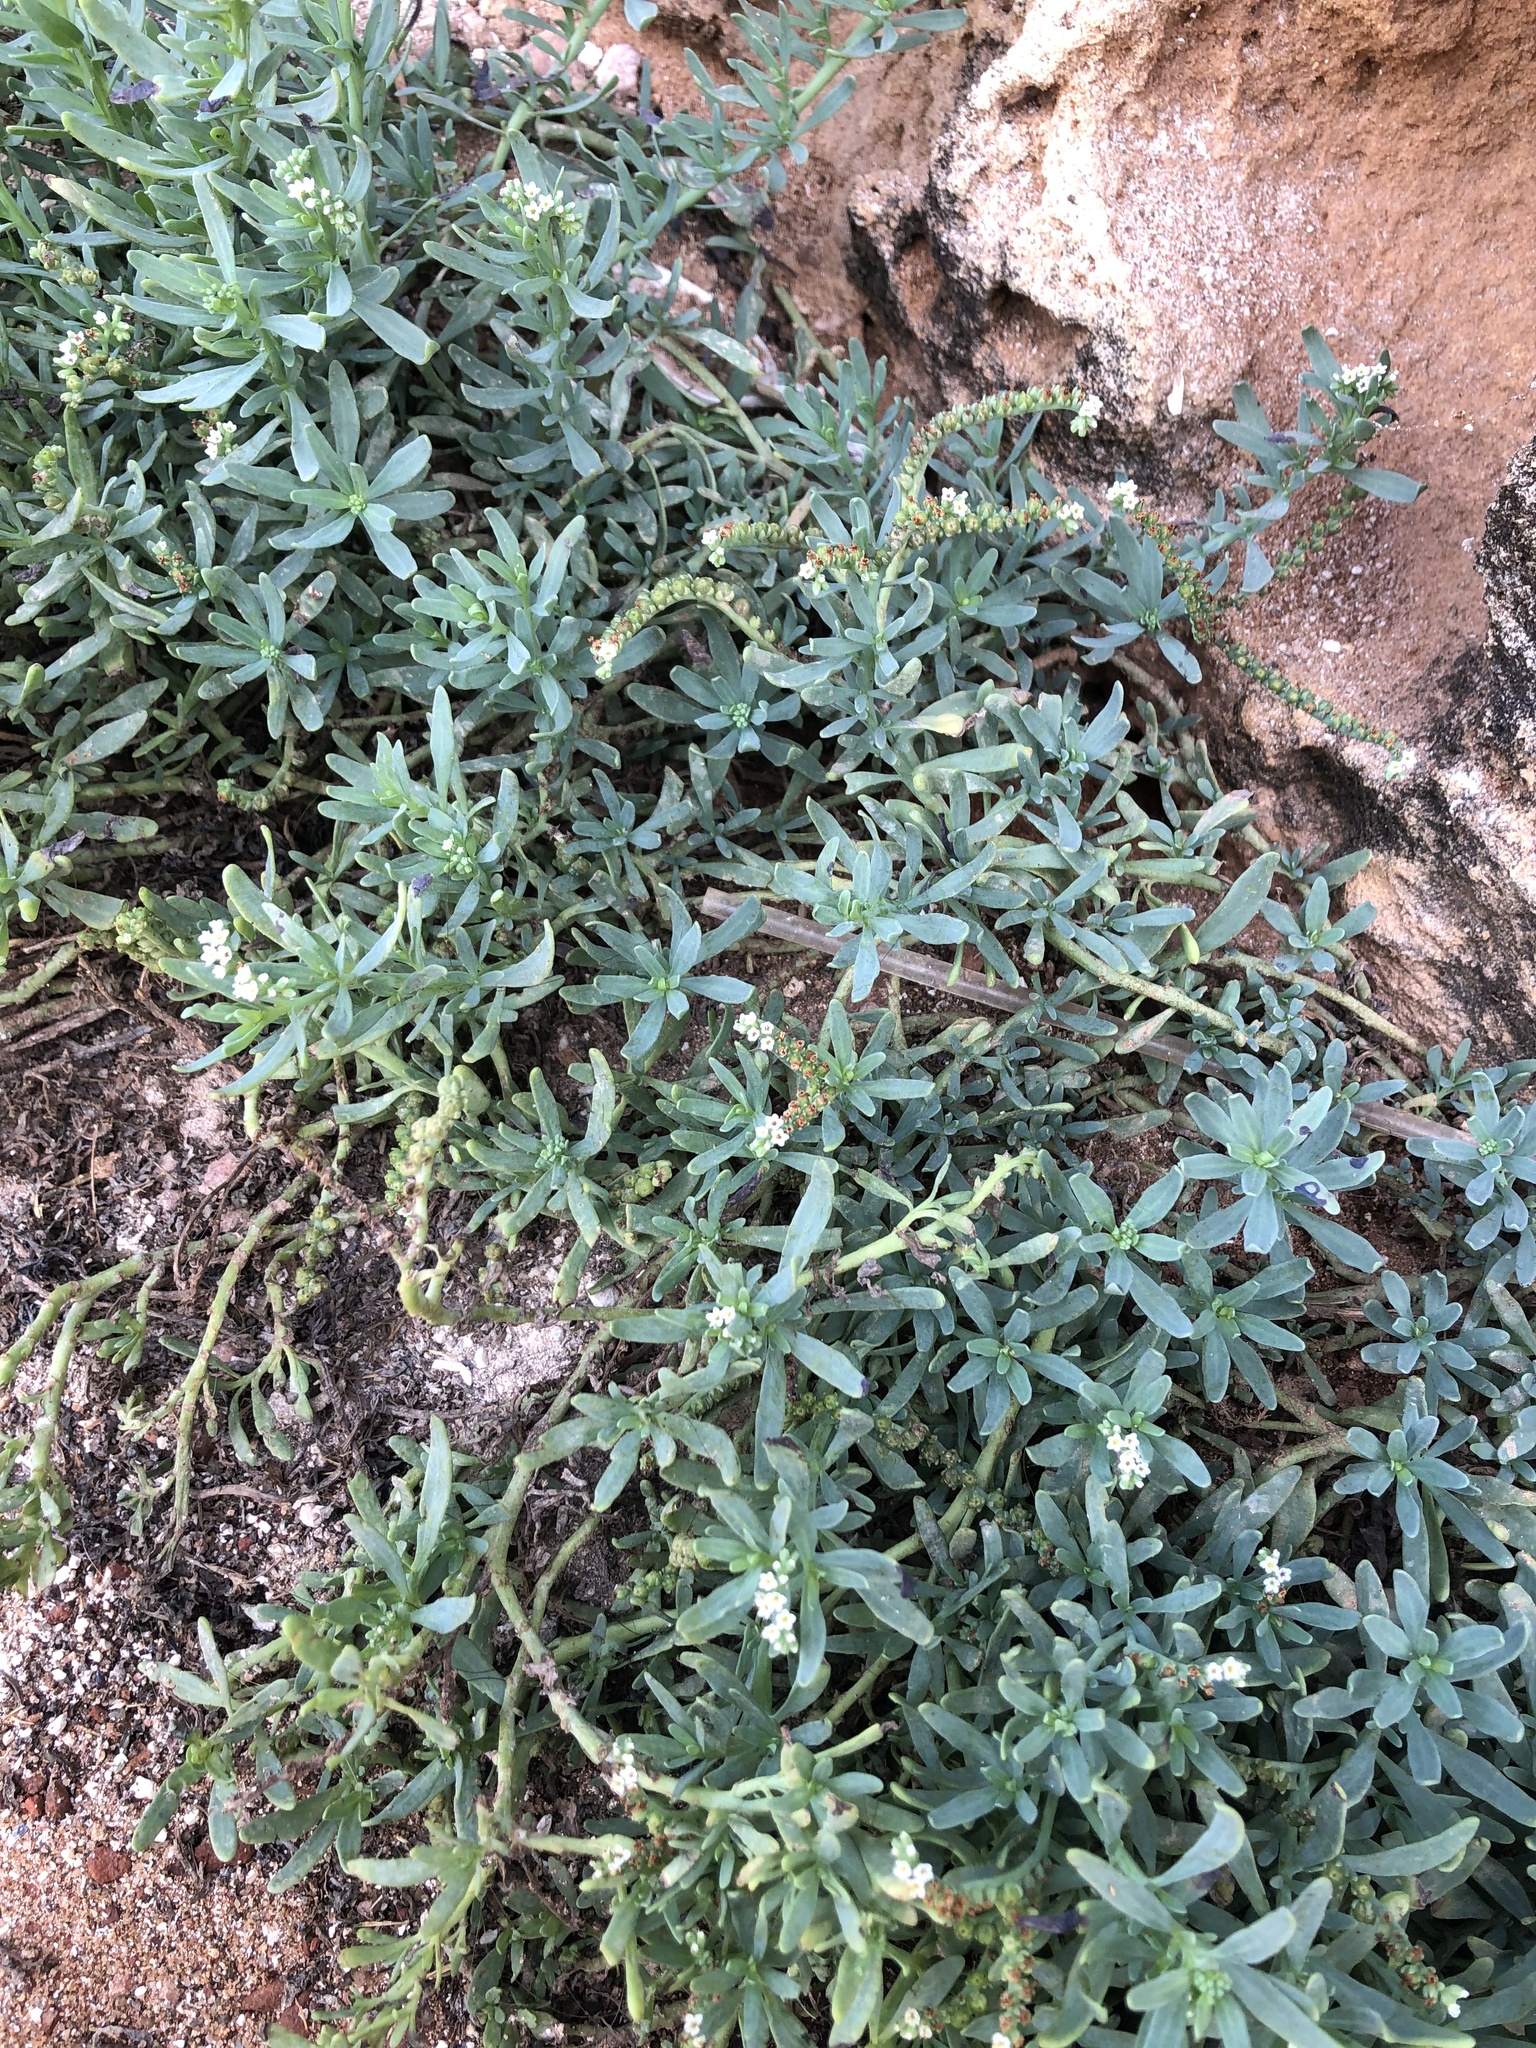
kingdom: Plantae
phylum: Tracheophyta
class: Magnoliopsida
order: Boraginales
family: Heliotropiaceae
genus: Heliotropium
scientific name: Heliotropium curassavicum
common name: Seaside heliotrope
